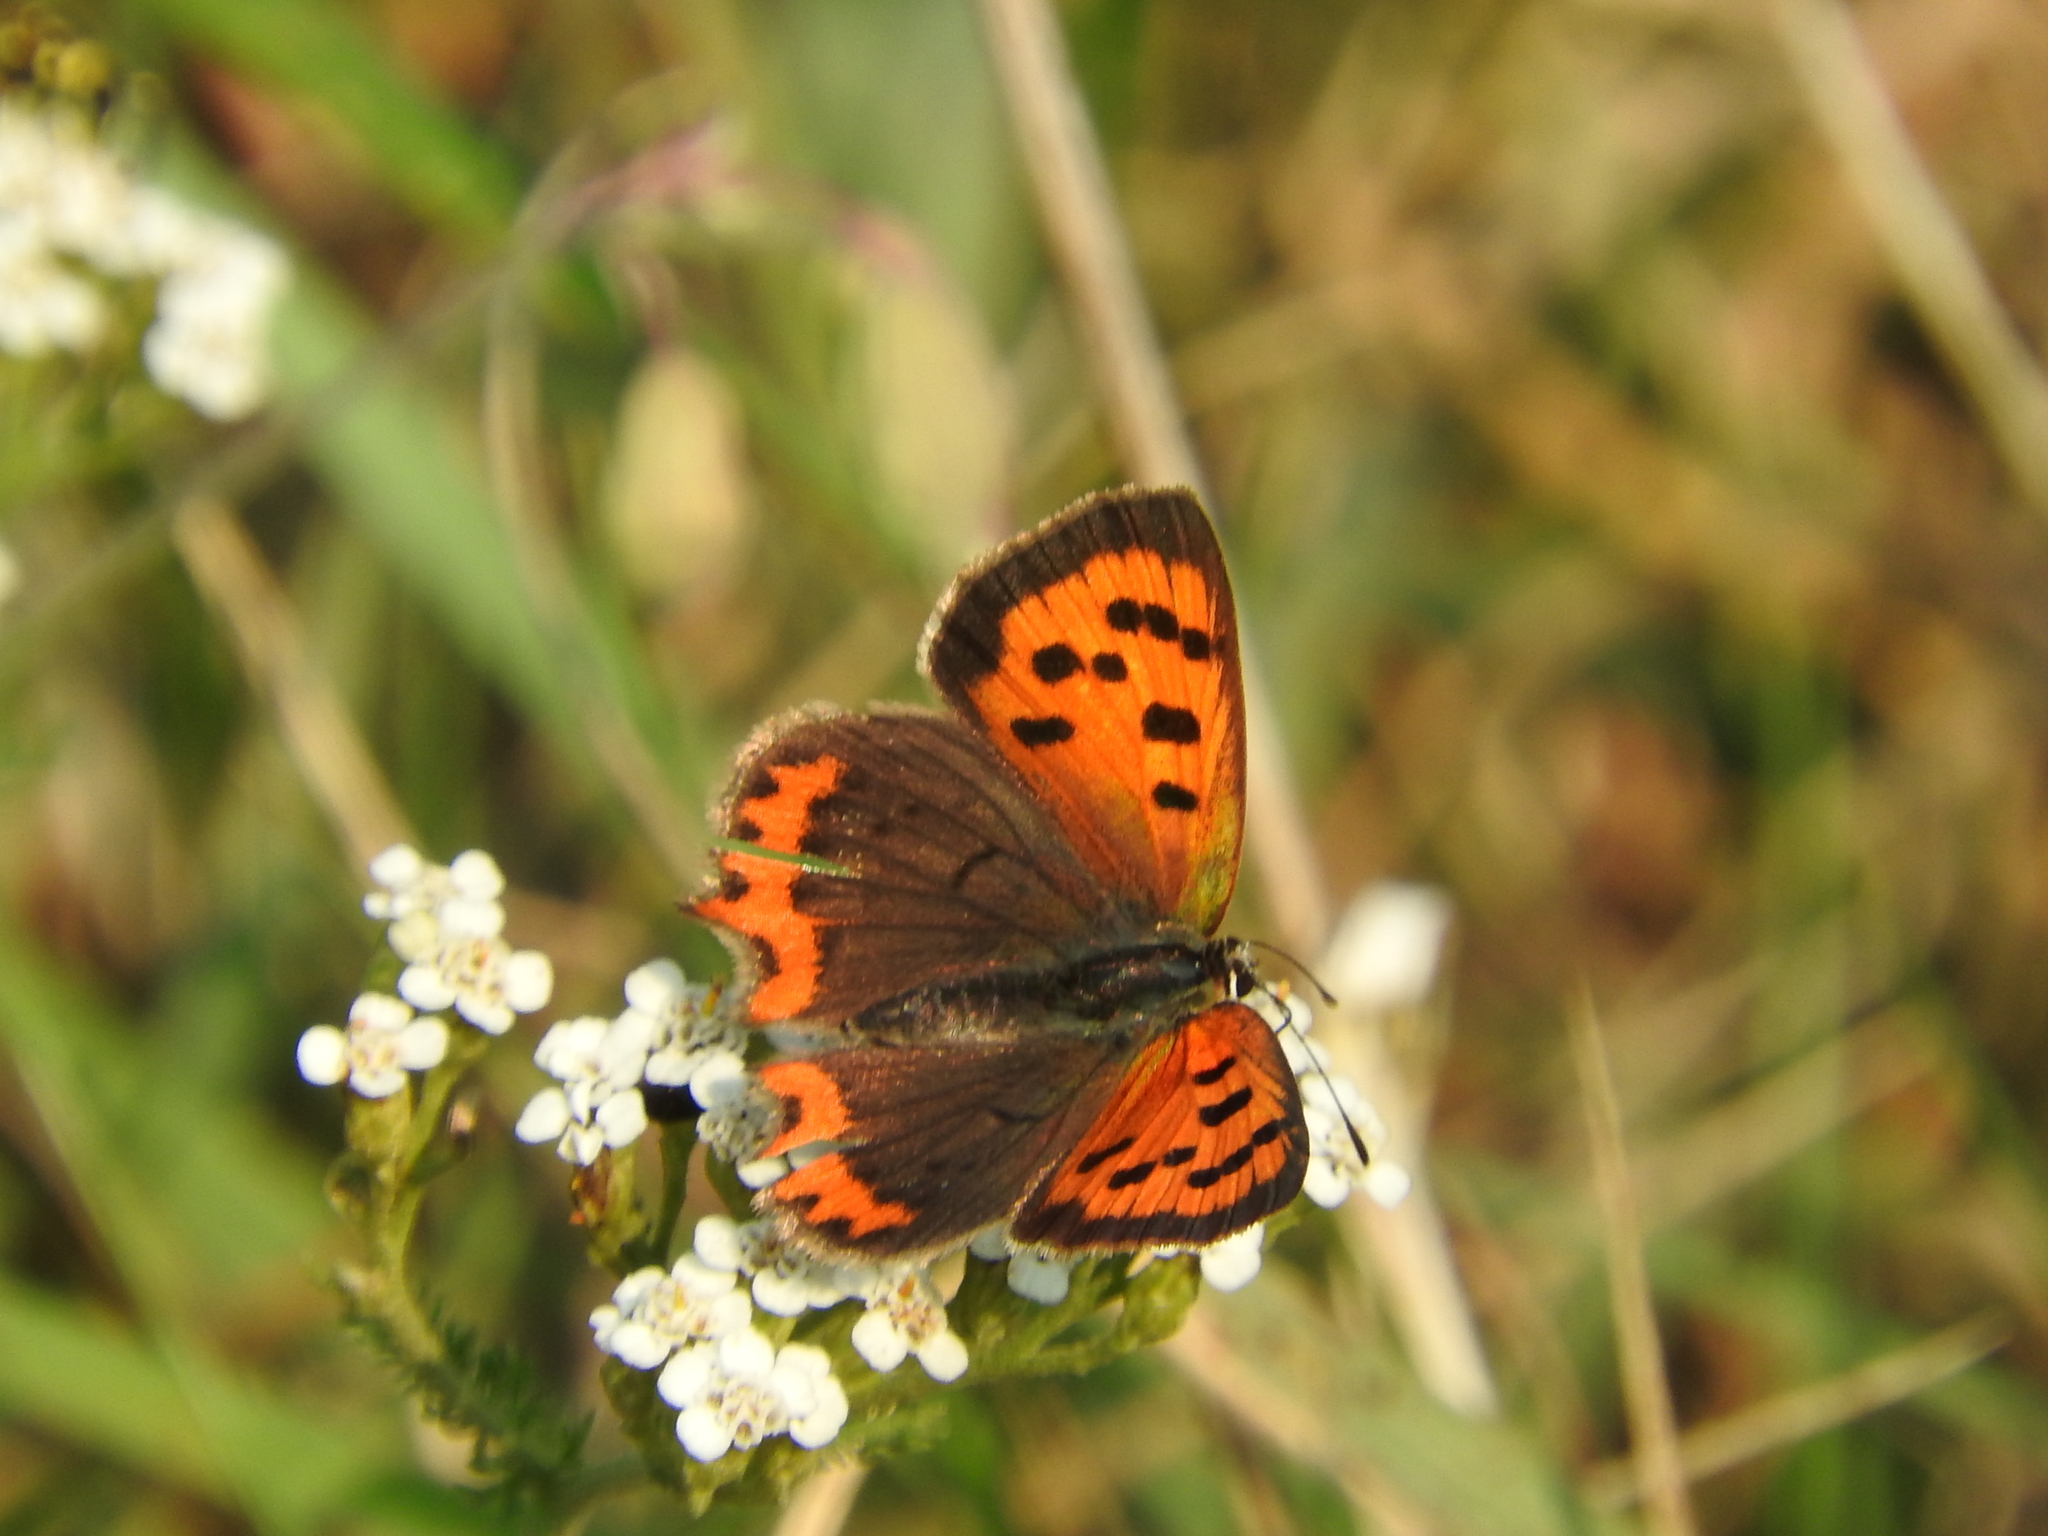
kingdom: Animalia
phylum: Arthropoda
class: Insecta
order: Lepidoptera
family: Lycaenidae
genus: Lycaena
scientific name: Lycaena phlaeas
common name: Small copper
